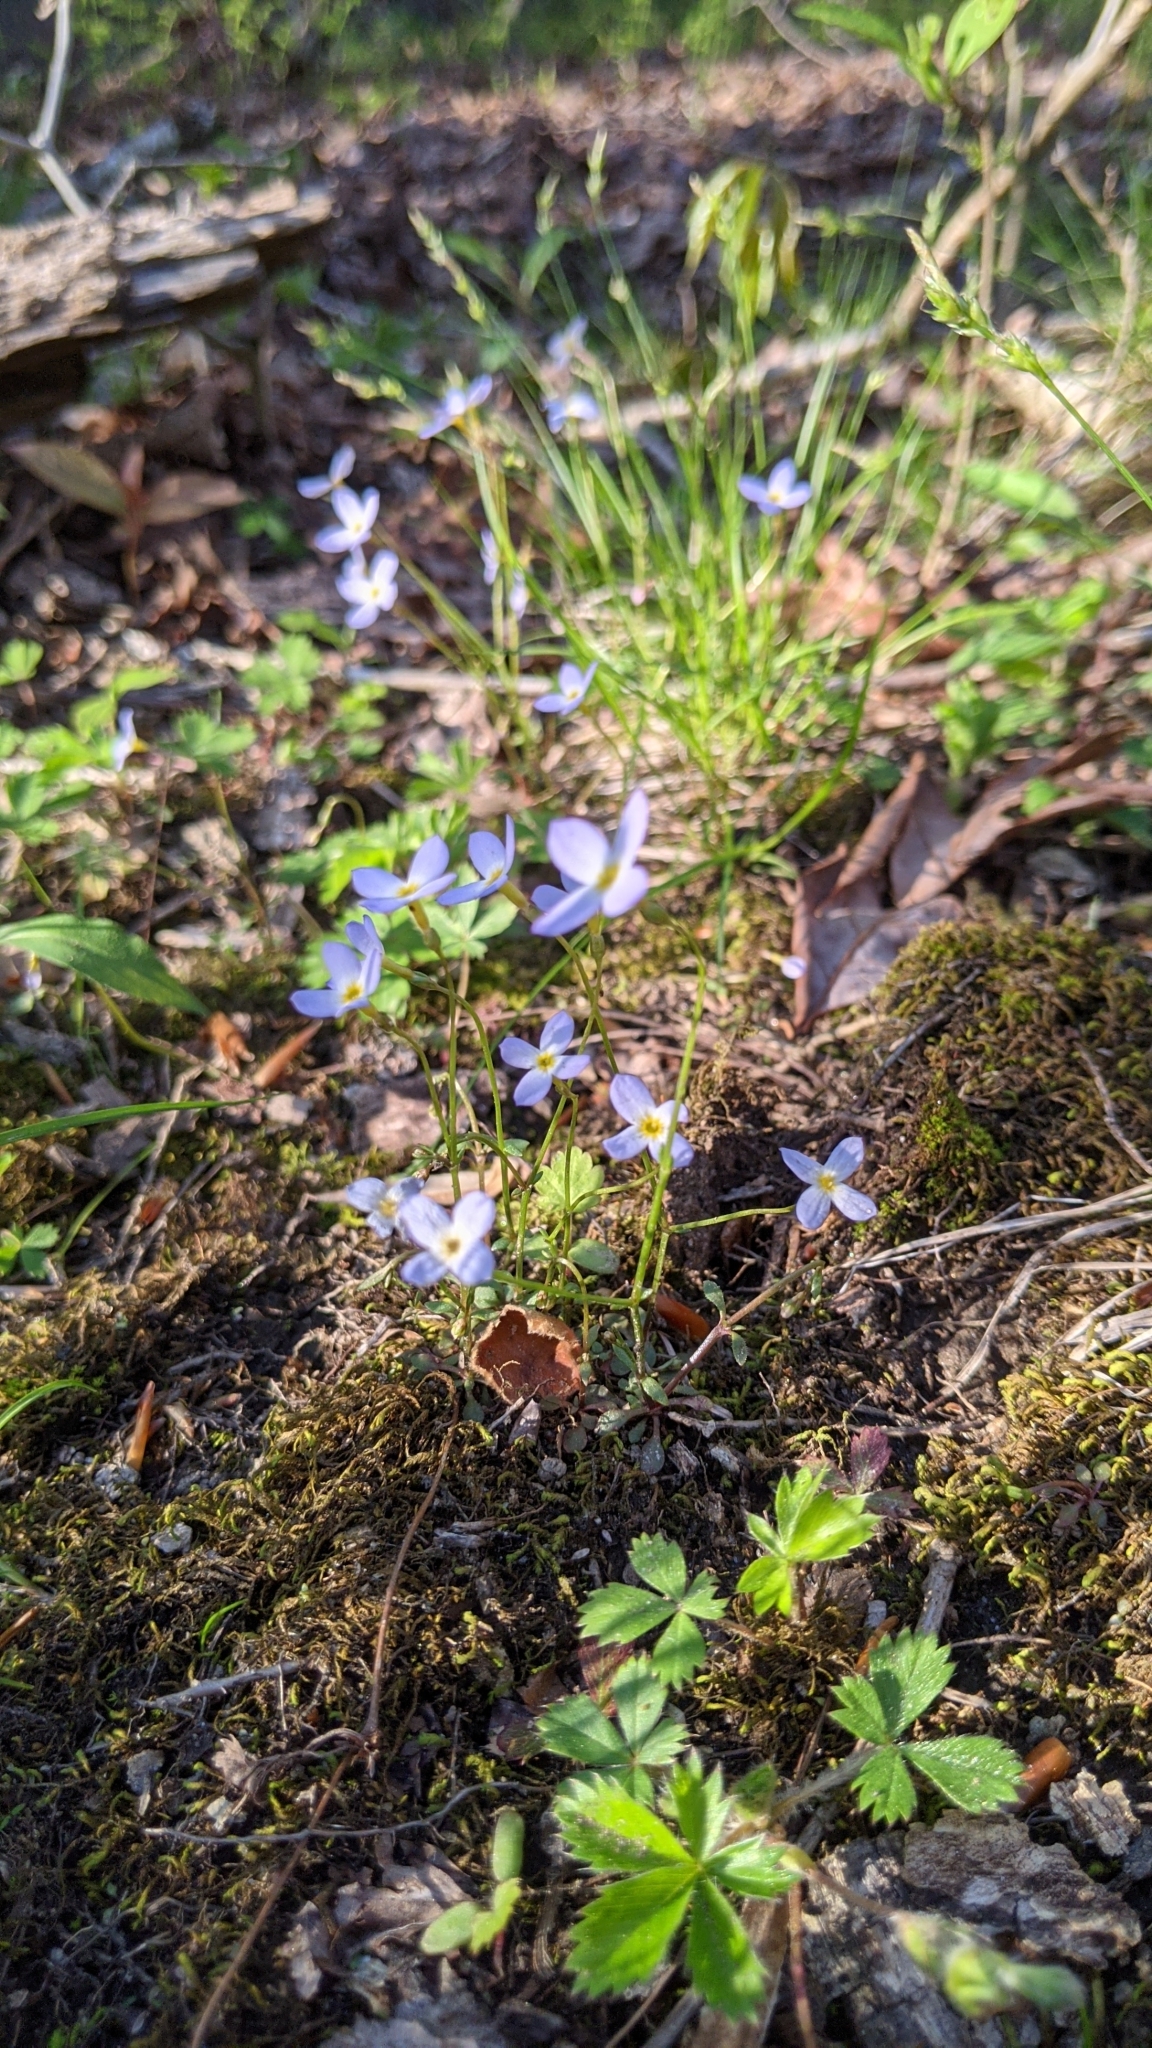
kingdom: Plantae
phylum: Tracheophyta
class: Magnoliopsida
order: Gentianales
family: Rubiaceae
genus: Houstonia
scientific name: Houstonia caerulea
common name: Bluets
